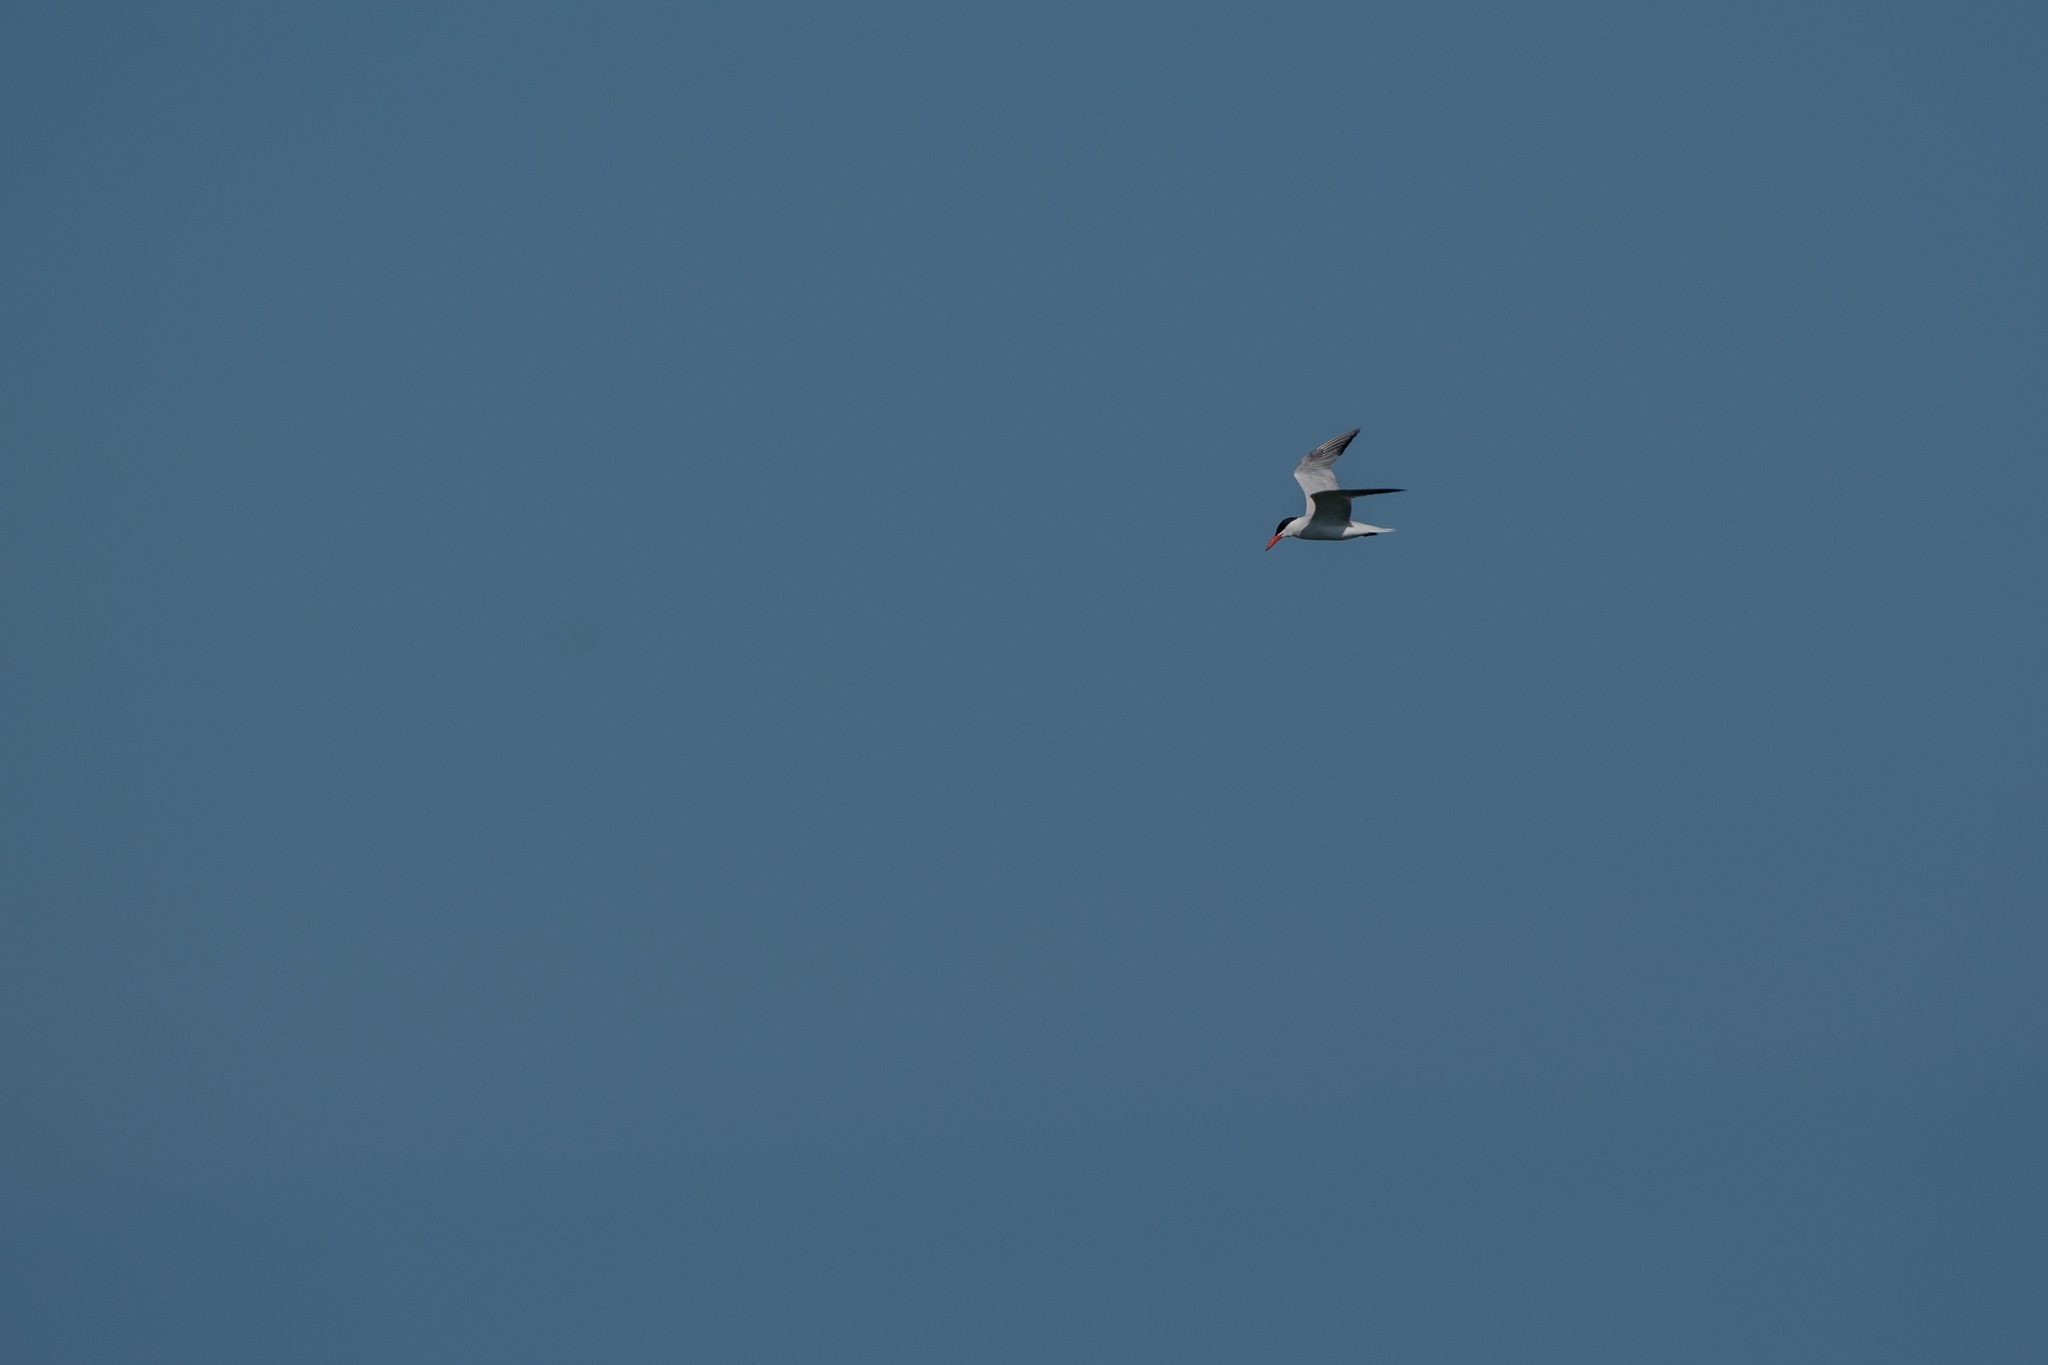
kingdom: Animalia
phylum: Chordata
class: Aves
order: Charadriiformes
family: Laridae
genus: Hydroprogne
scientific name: Hydroprogne caspia
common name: Caspian tern
